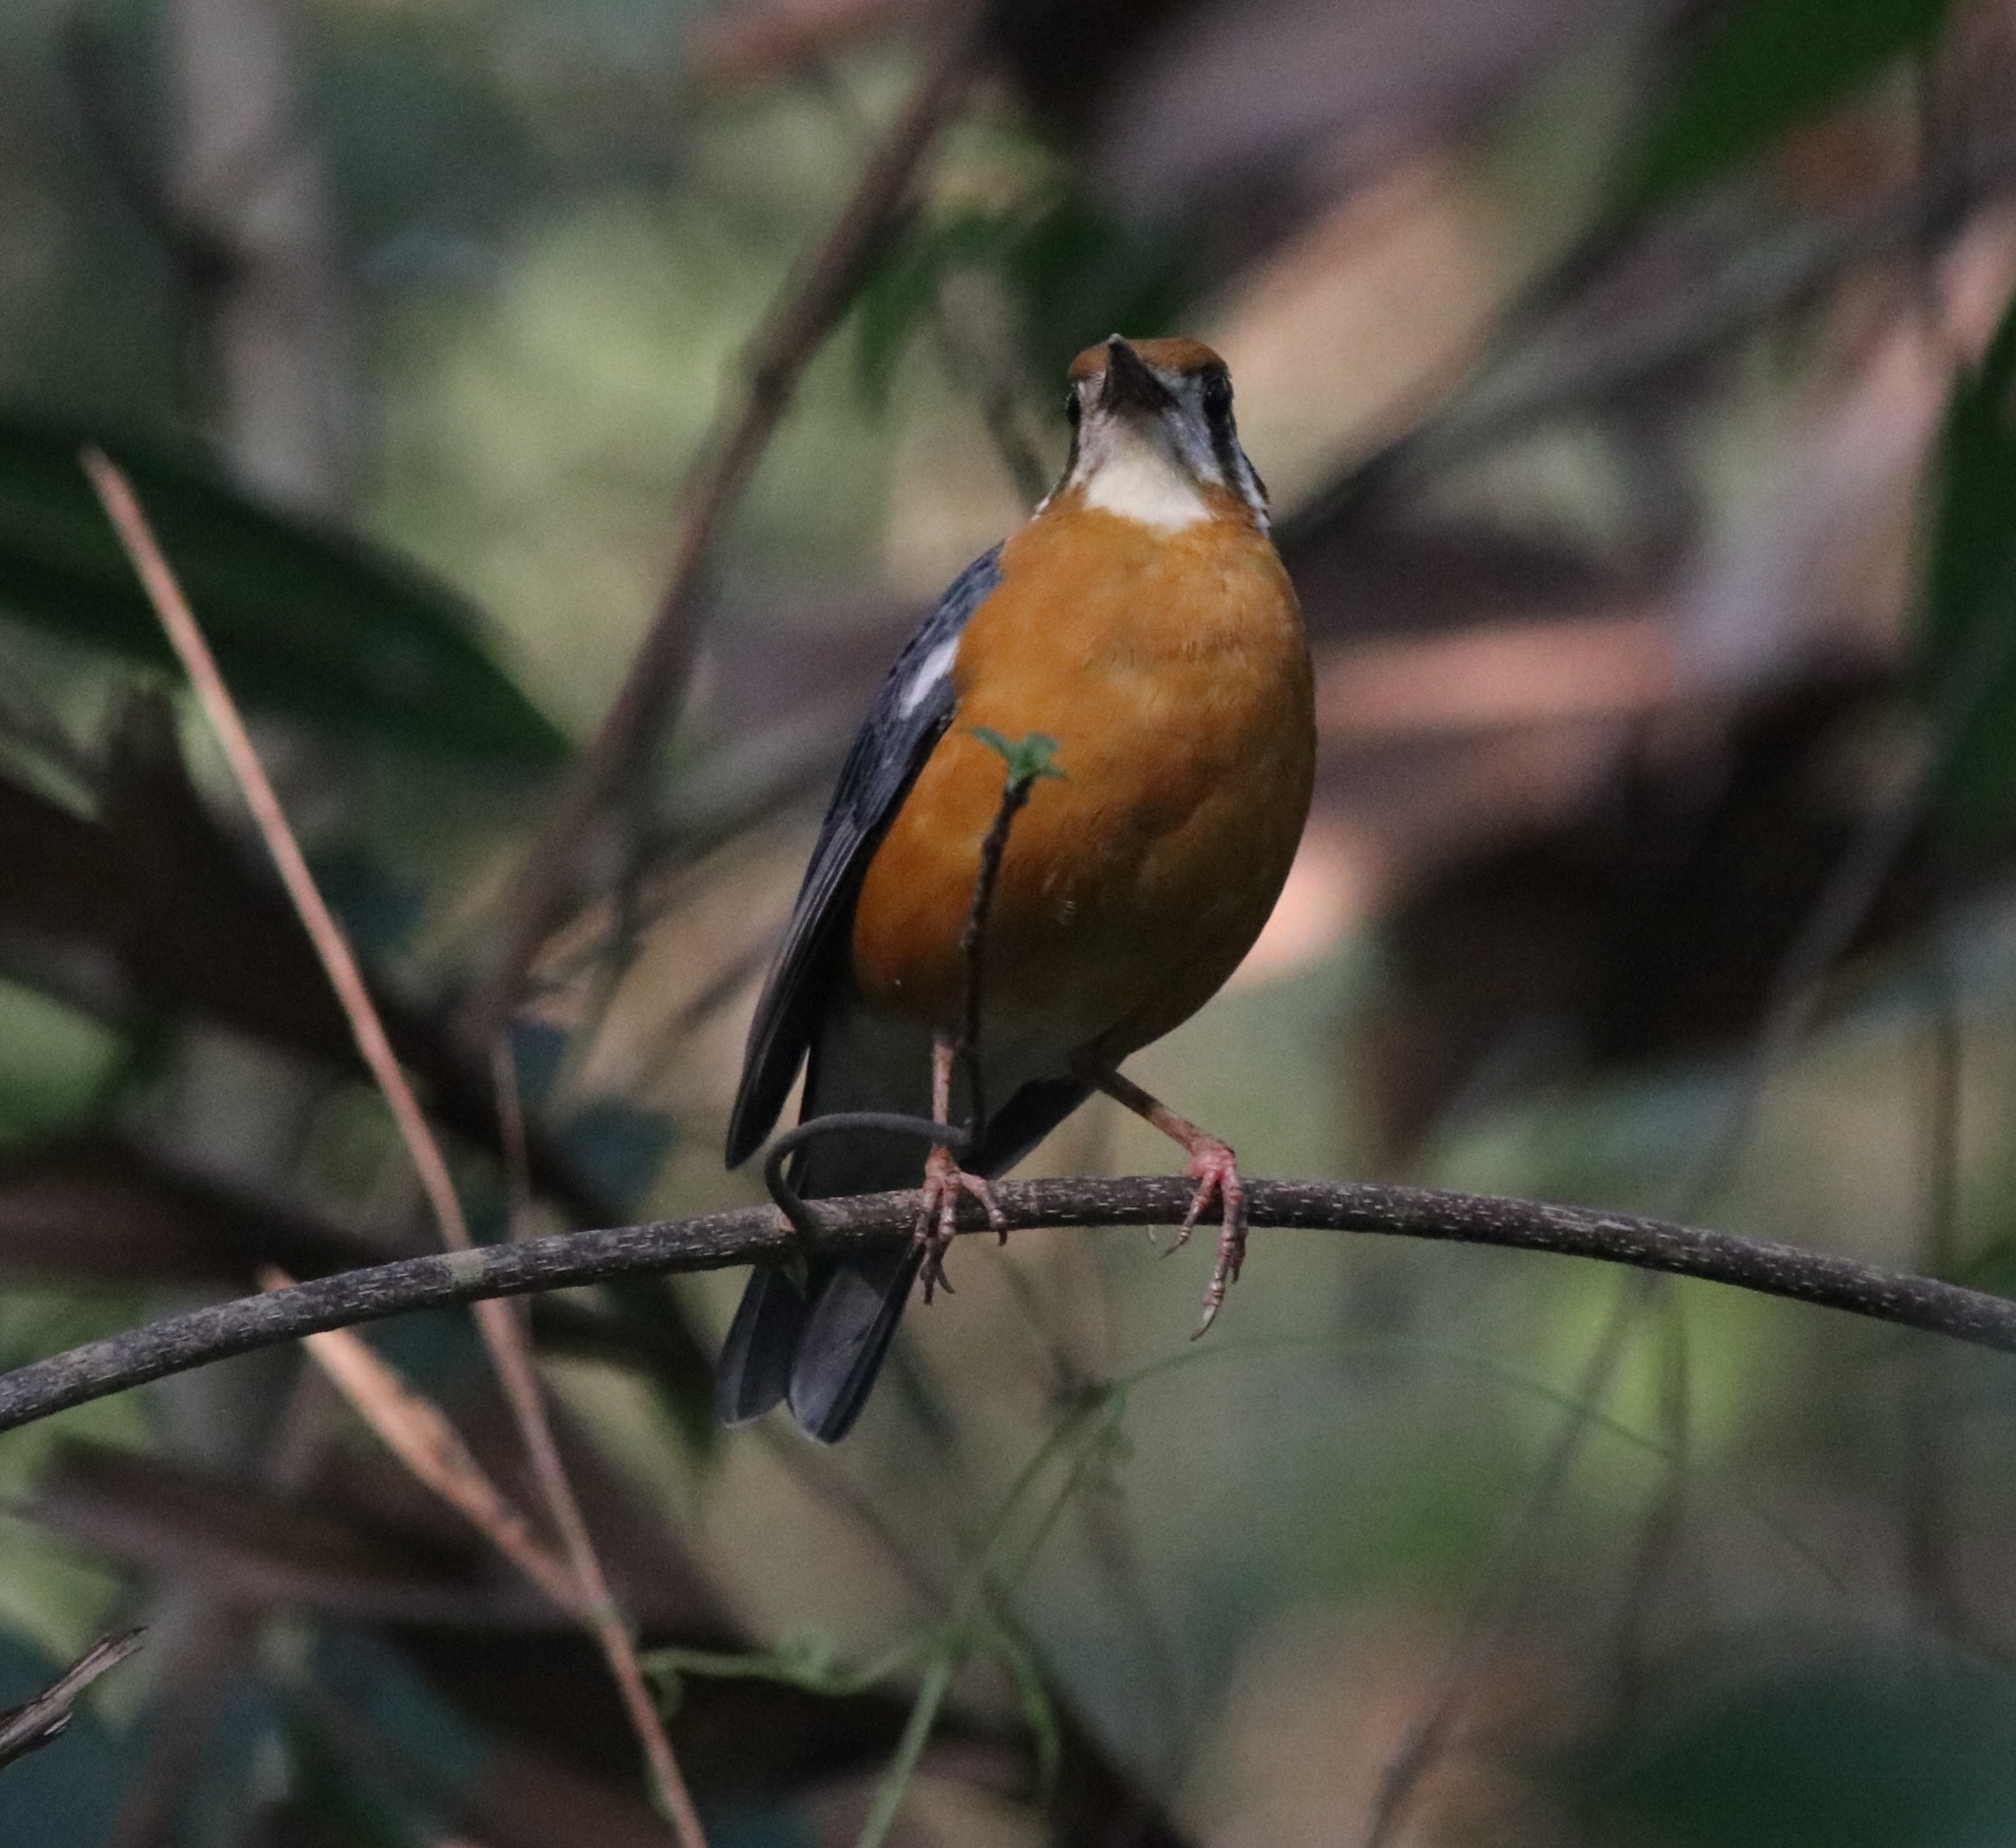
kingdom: Animalia
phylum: Chordata
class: Aves
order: Passeriformes
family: Turdidae
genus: Geokichla
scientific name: Geokichla citrina
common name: Orange-headed thrush
